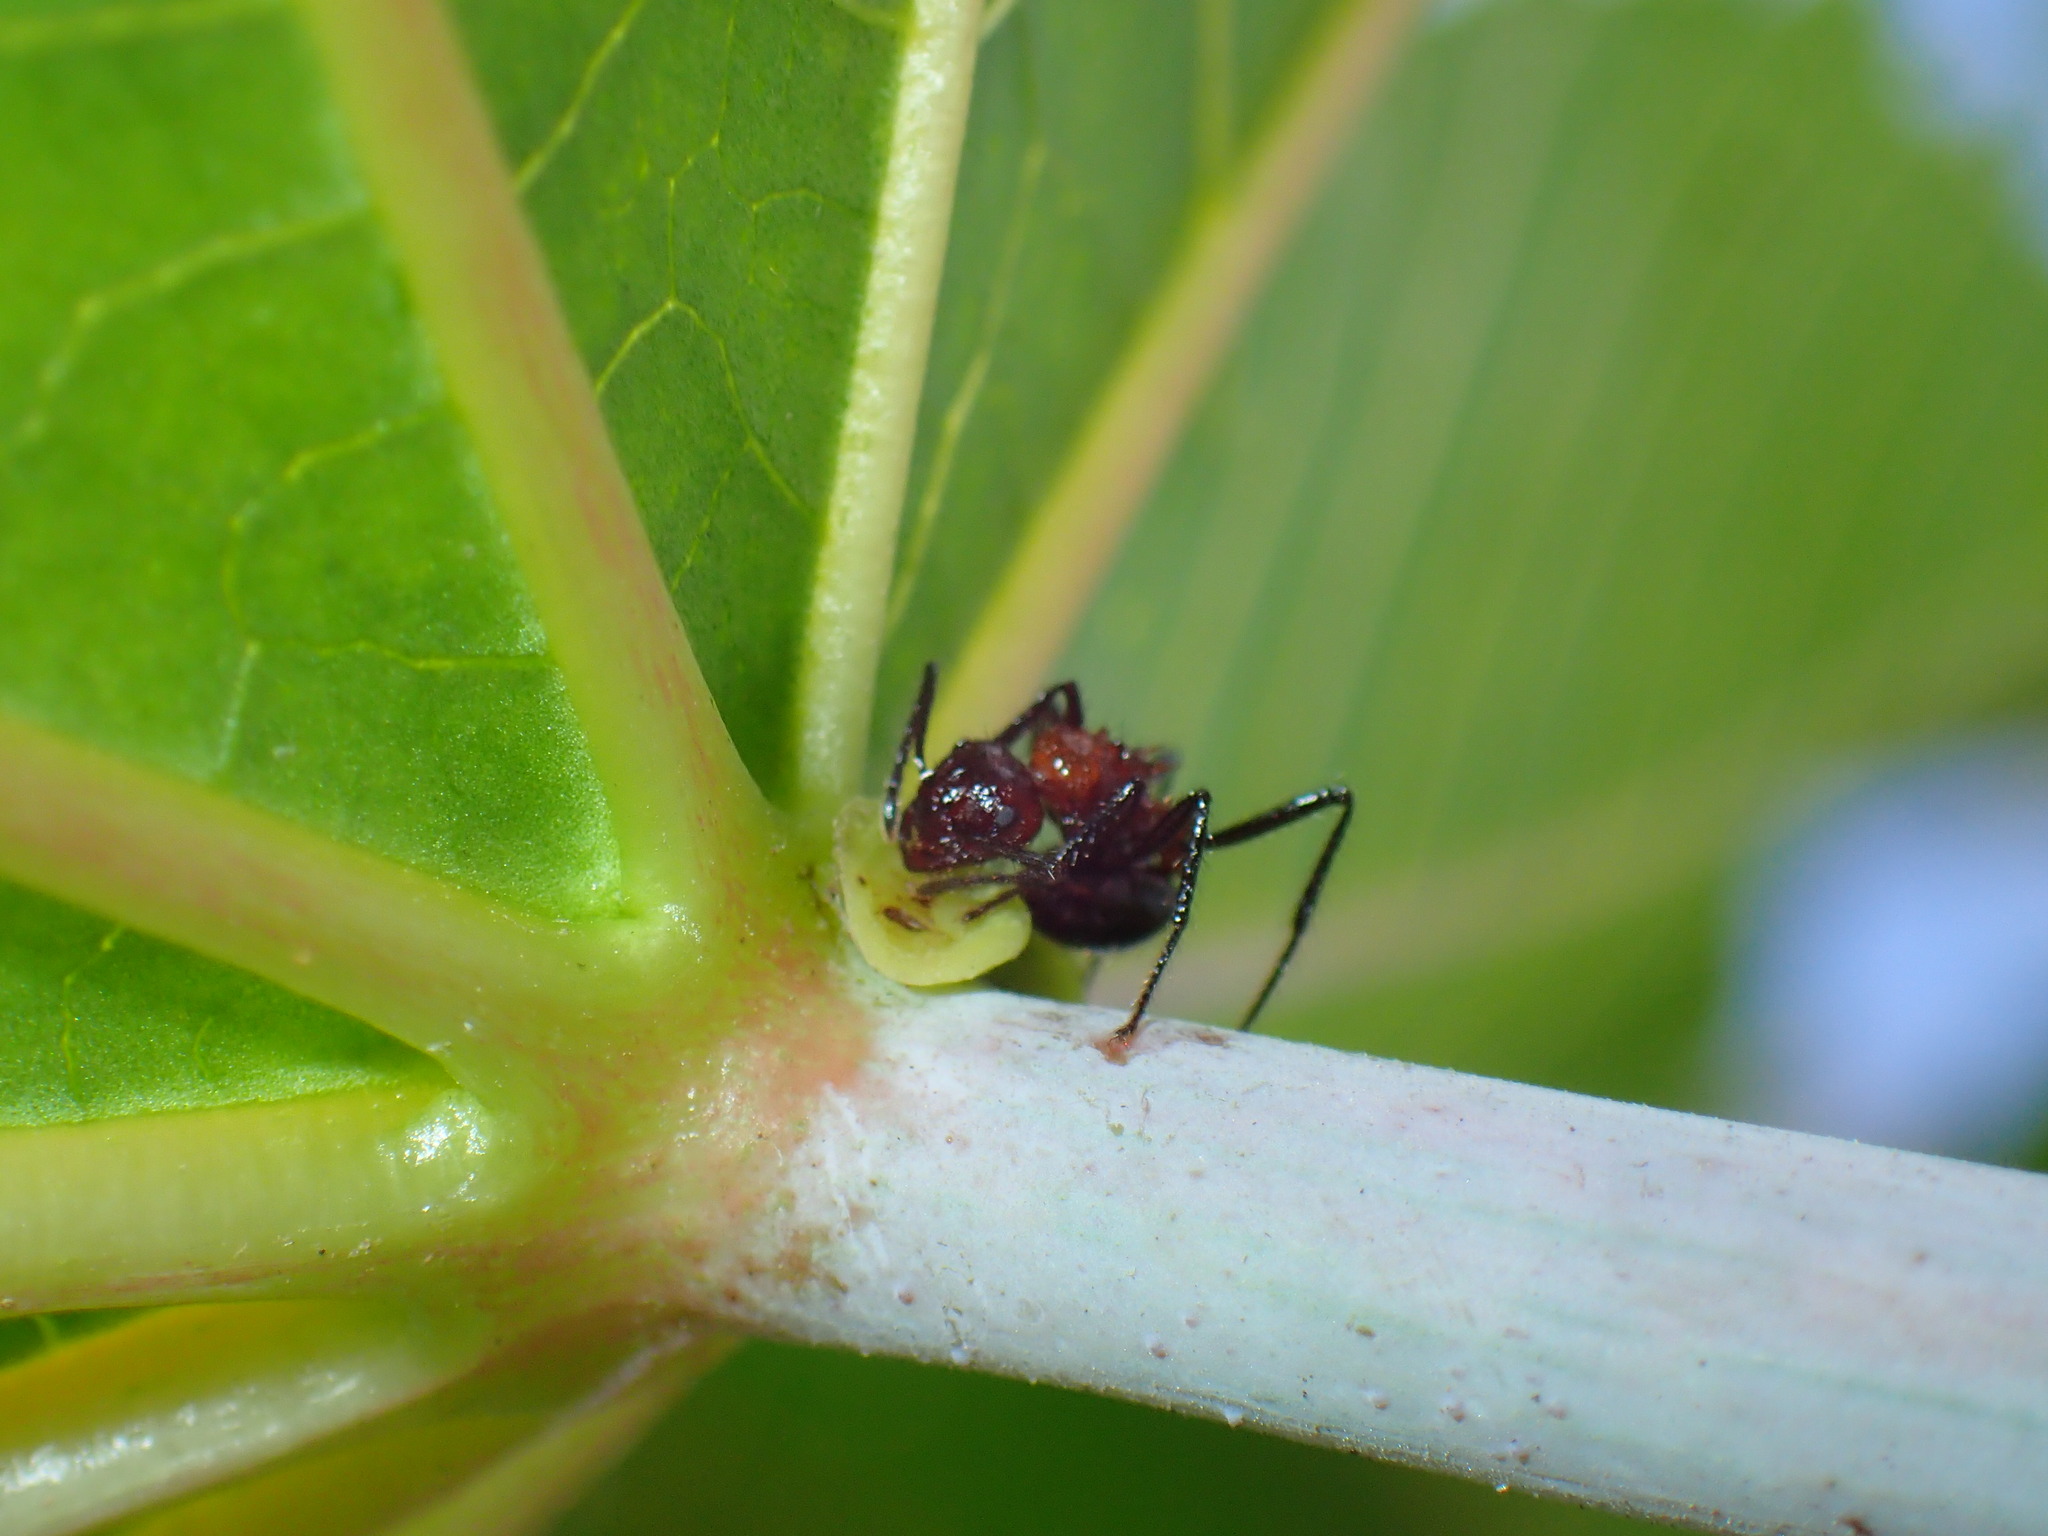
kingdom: Animalia
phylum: Arthropoda
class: Insecta
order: Hymenoptera
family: Formicidae
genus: Myrmicaria
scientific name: Myrmicaria natalensis
